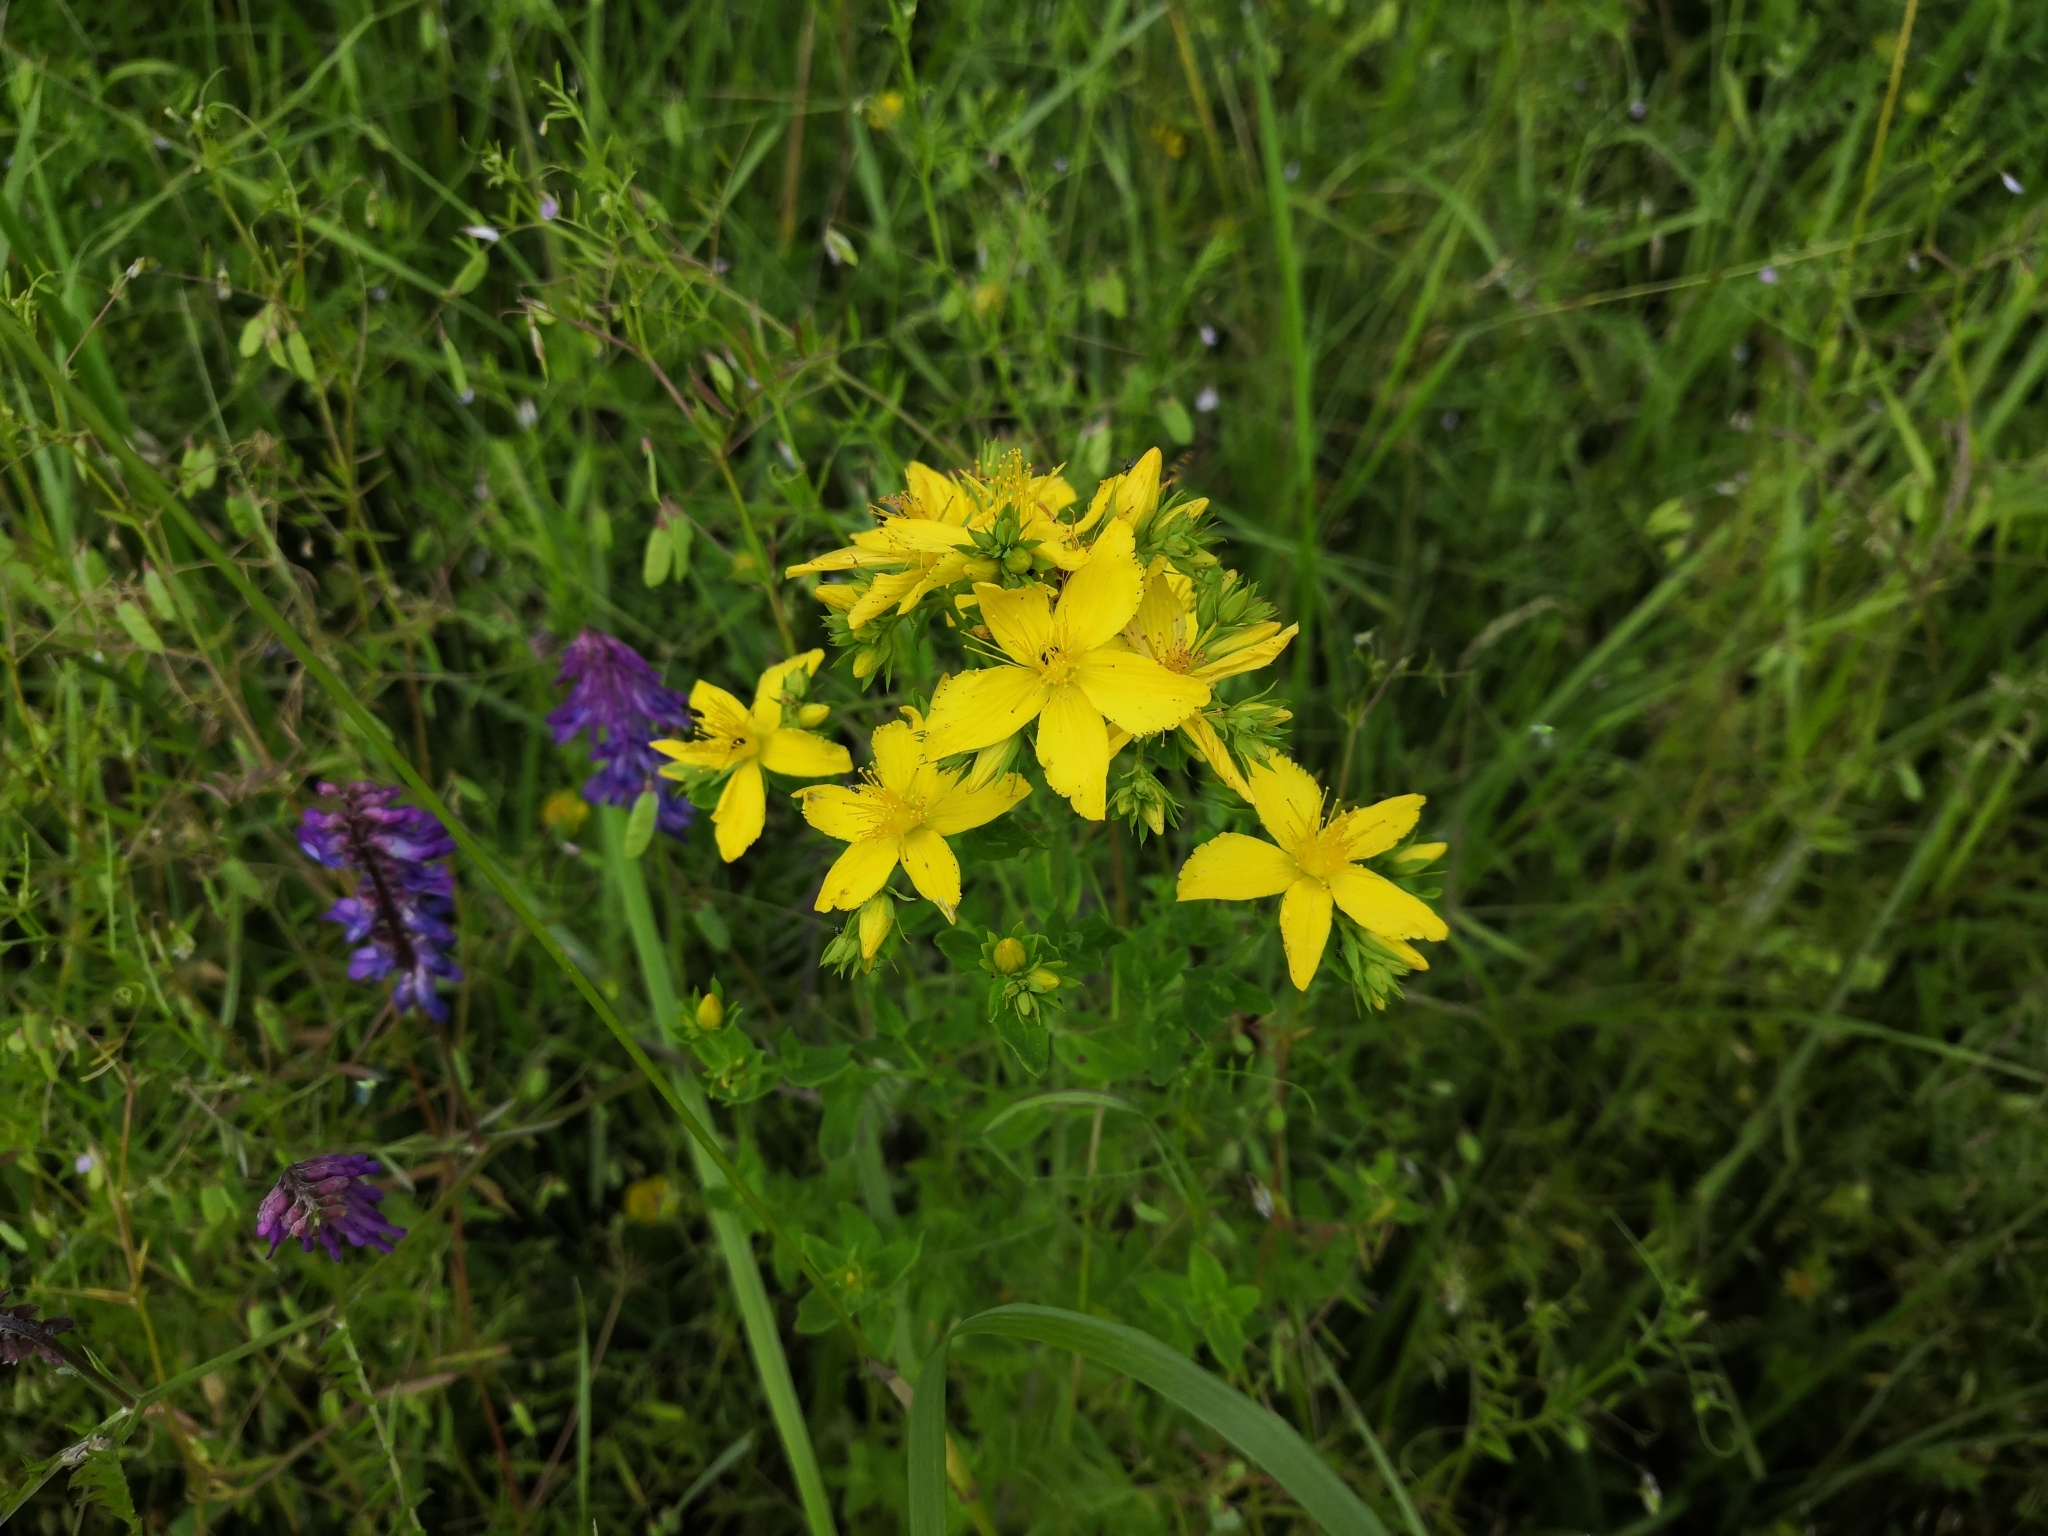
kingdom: Plantae
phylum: Tracheophyta
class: Magnoliopsida
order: Malpighiales
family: Hypericaceae
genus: Hypericum
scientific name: Hypericum perforatum
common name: Common st. johnswort
